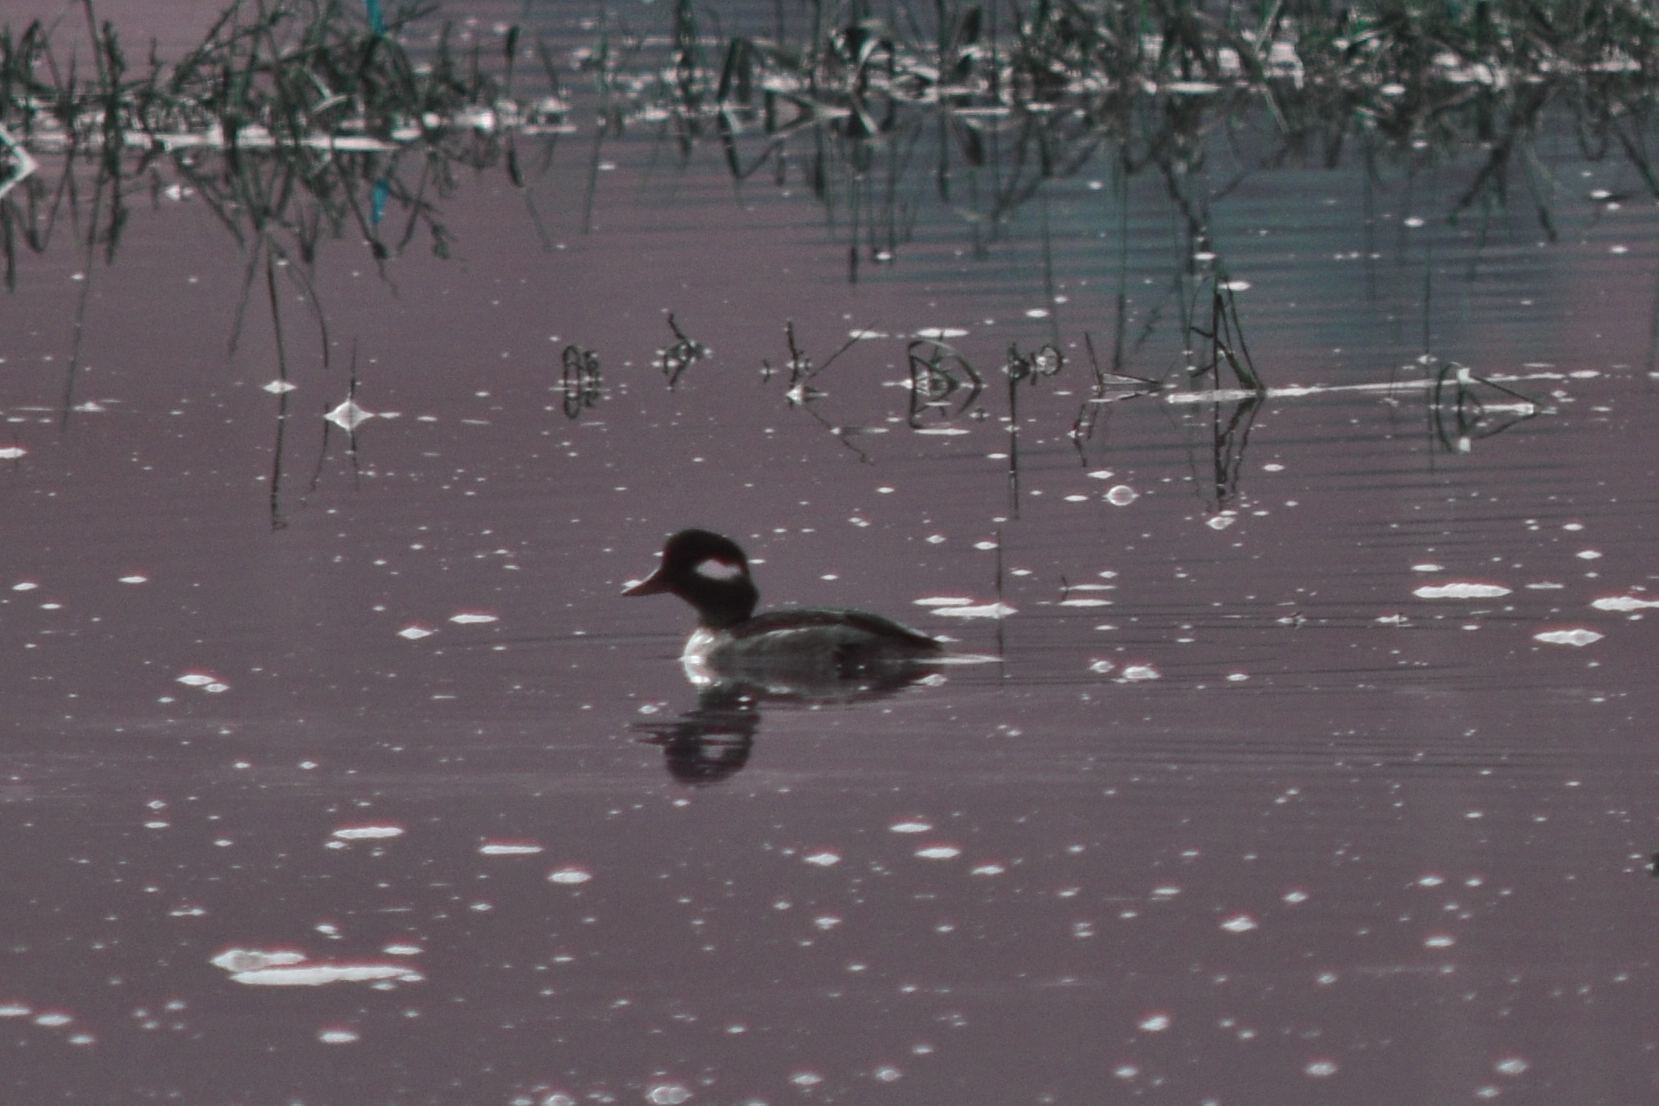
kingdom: Animalia
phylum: Chordata
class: Aves
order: Anseriformes
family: Anatidae
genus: Bucephala
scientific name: Bucephala albeola
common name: Bufflehead
